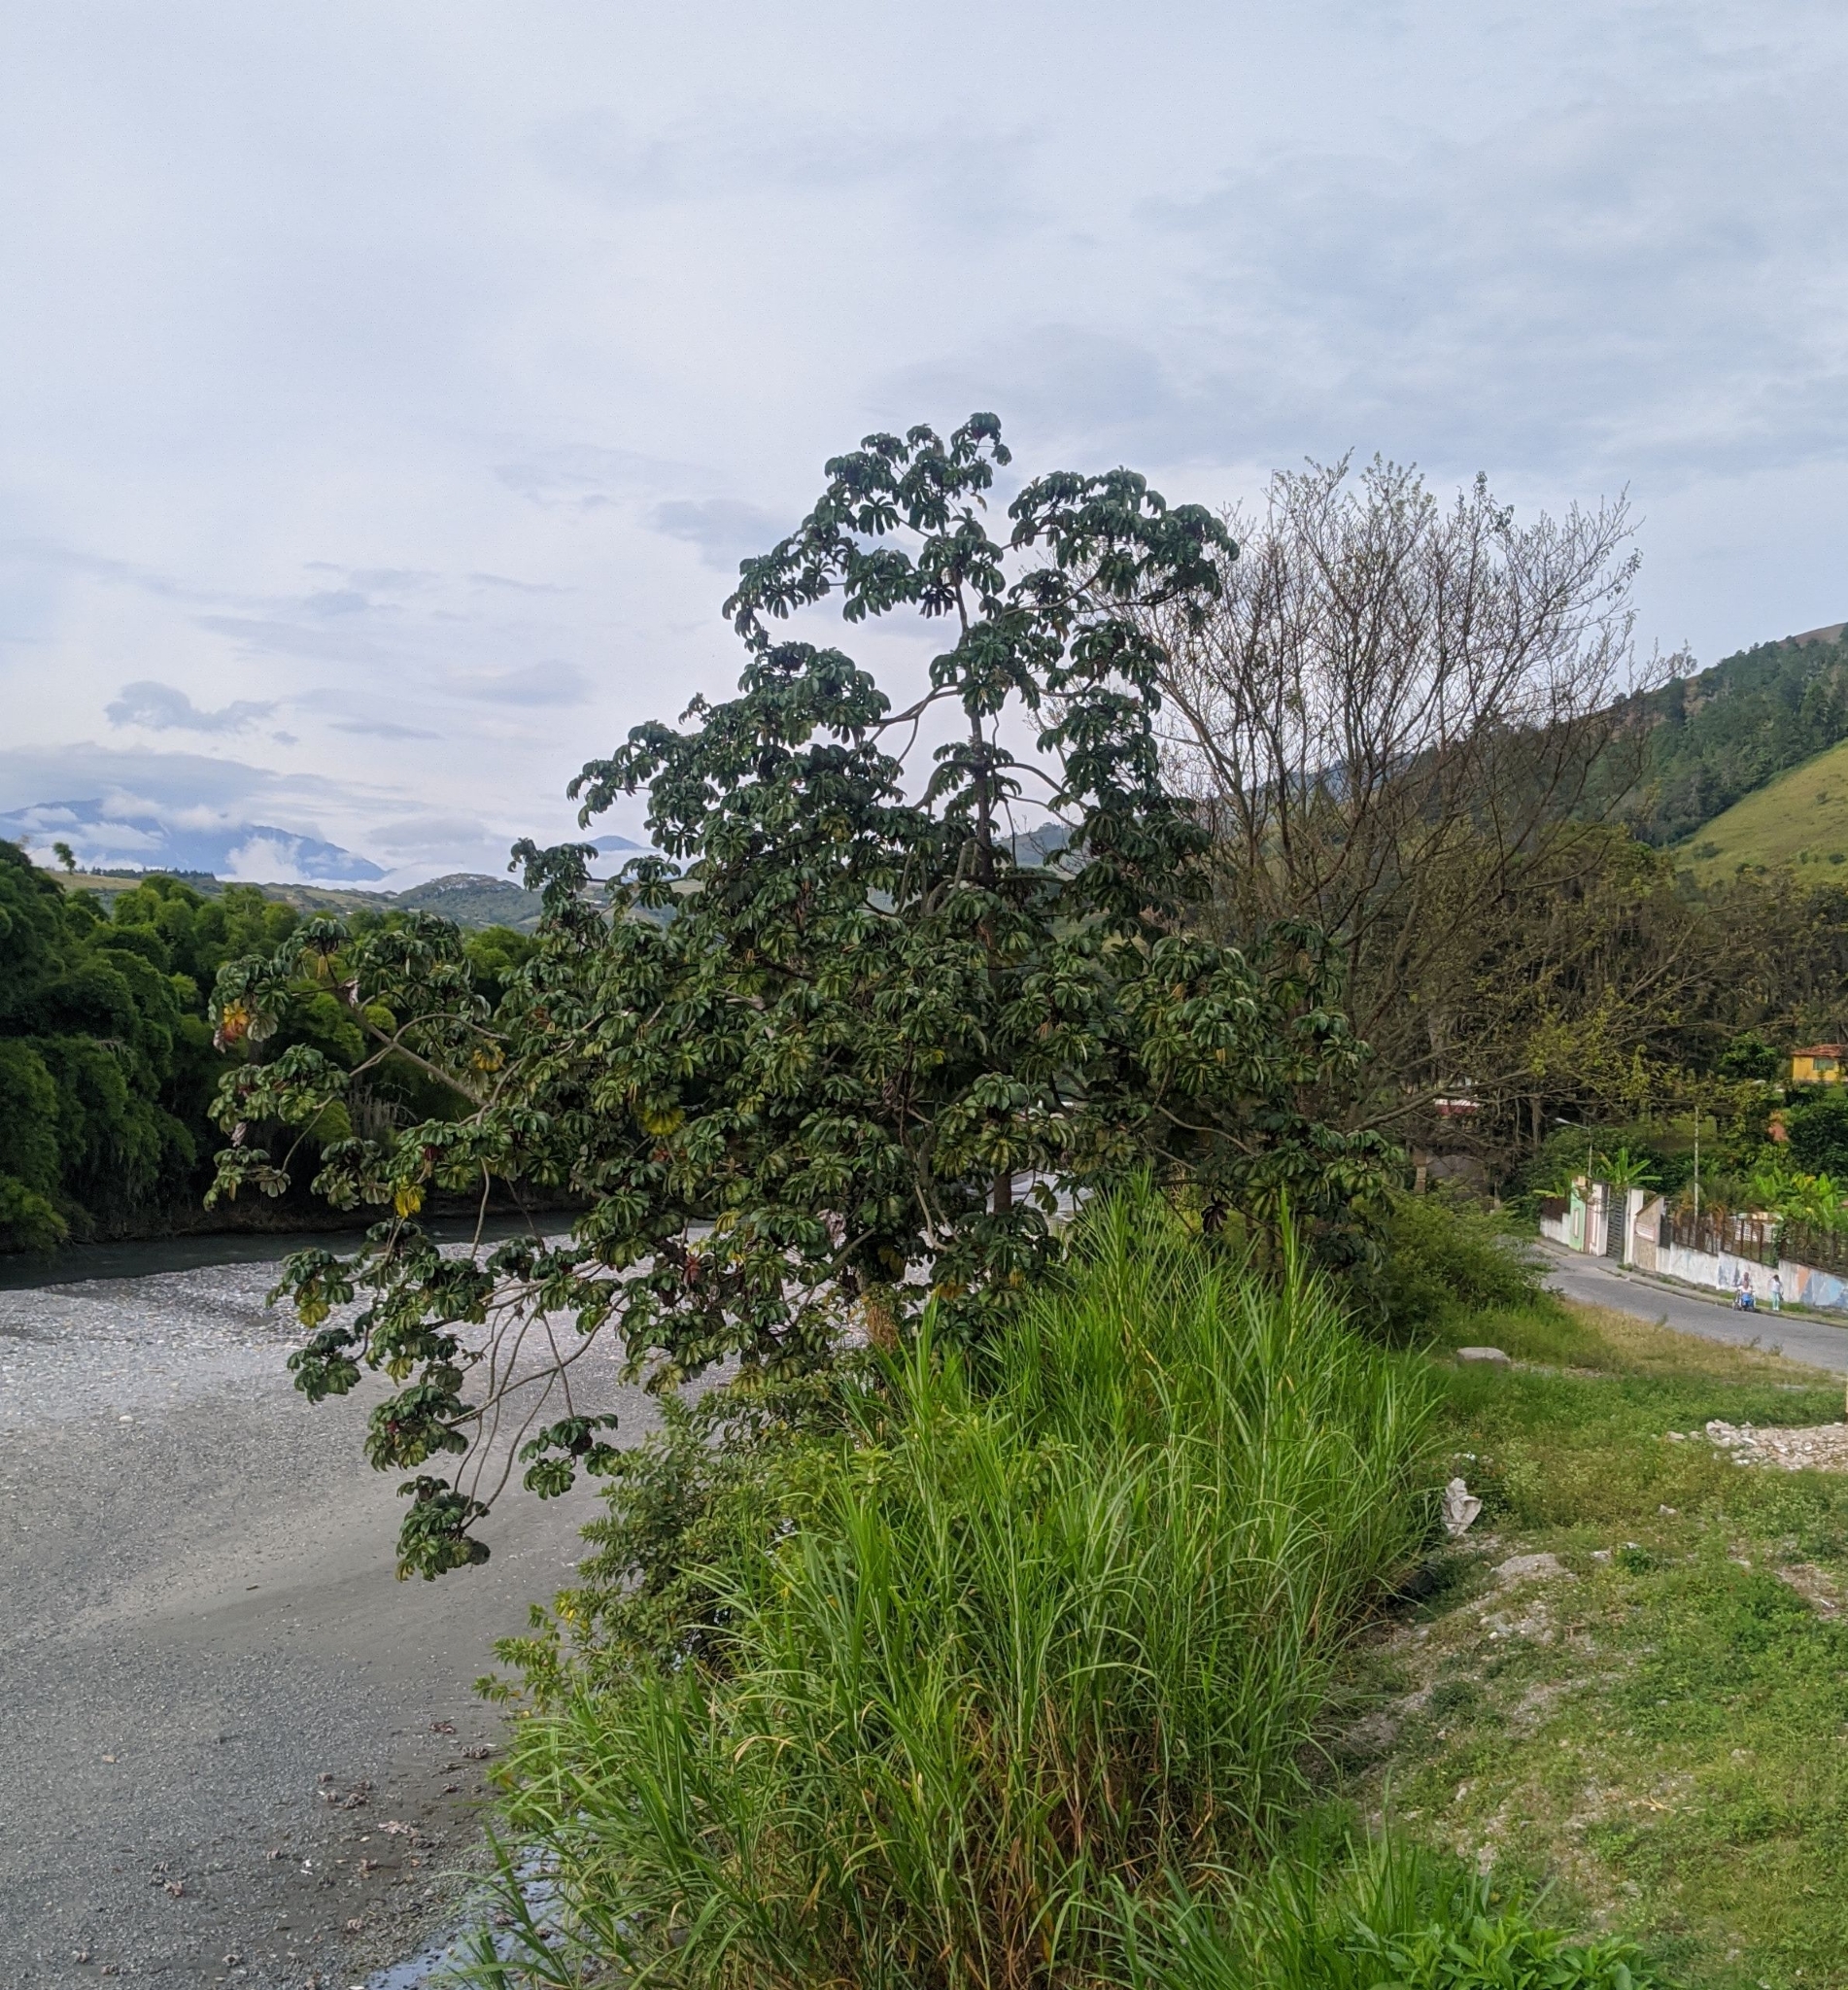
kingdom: Plantae
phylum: Tracheophyta
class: Magnoliopsida
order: Rosales
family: Urticaceae
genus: Cecropia
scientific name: Cecropia sararensis
